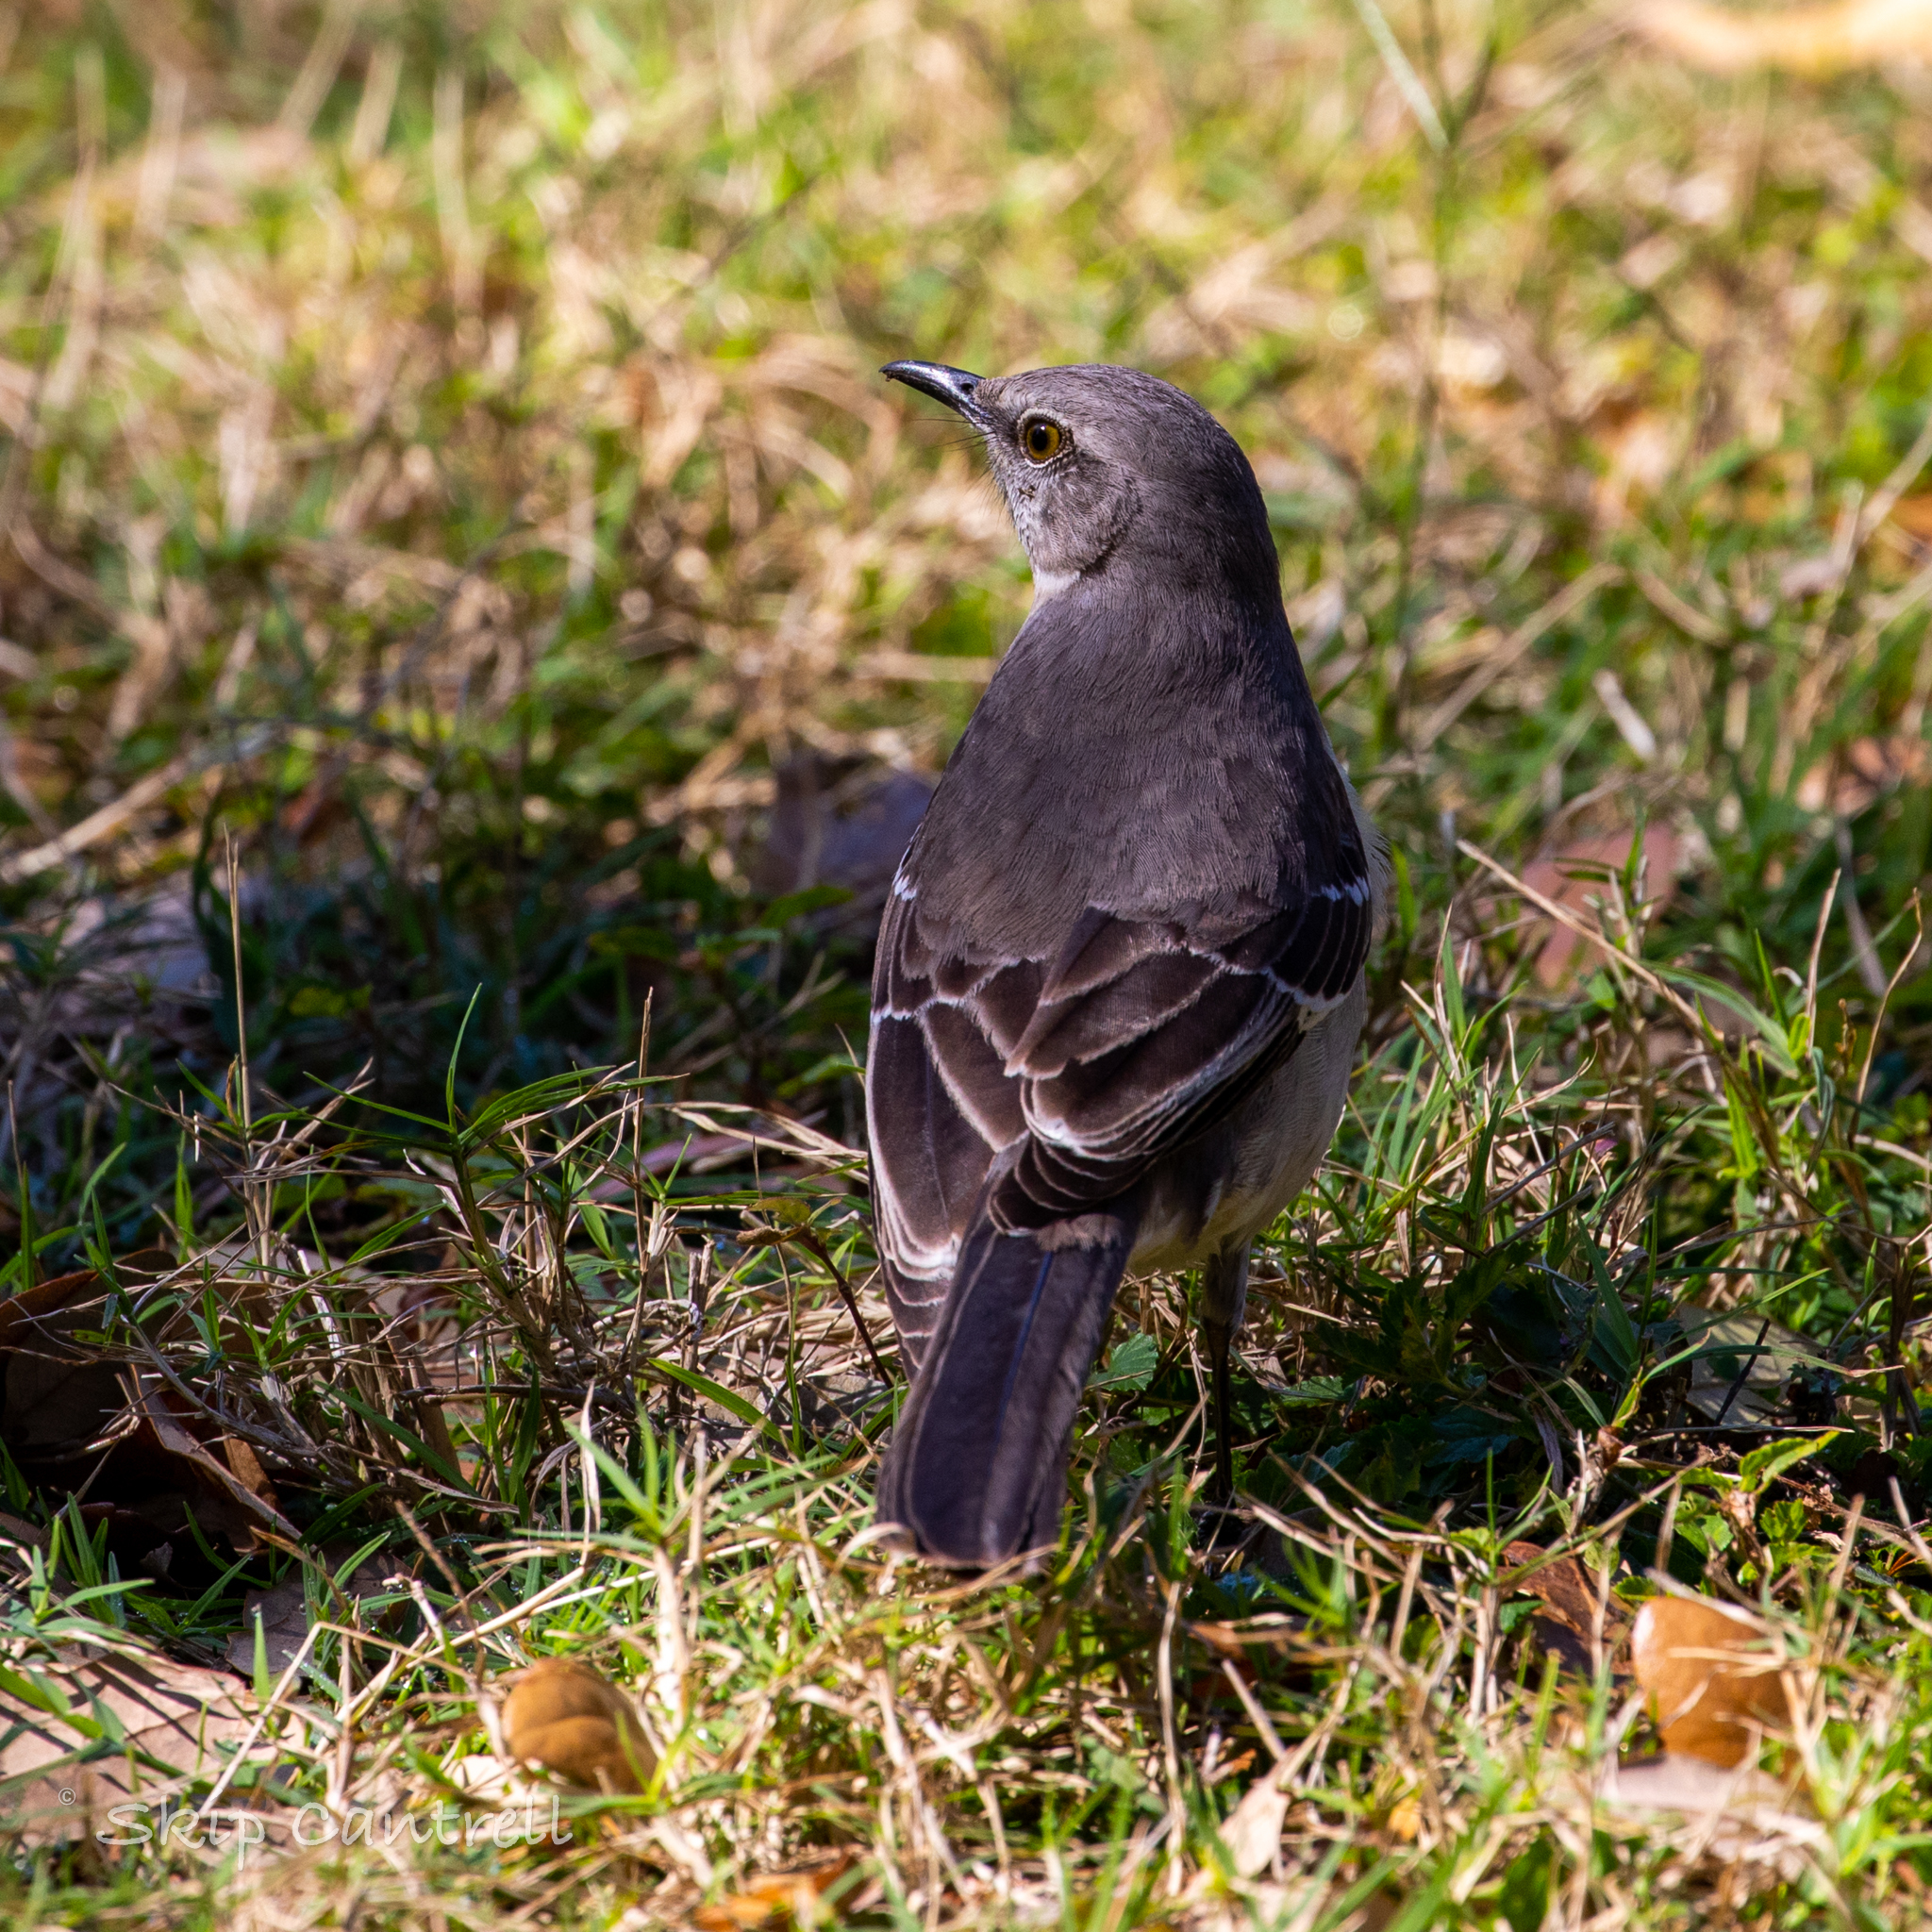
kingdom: Animalia
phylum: Chordata
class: Aves
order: Passeriformes
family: Mimidae
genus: Mimus
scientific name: Mimus polyglottos
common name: Northern mockingbird
